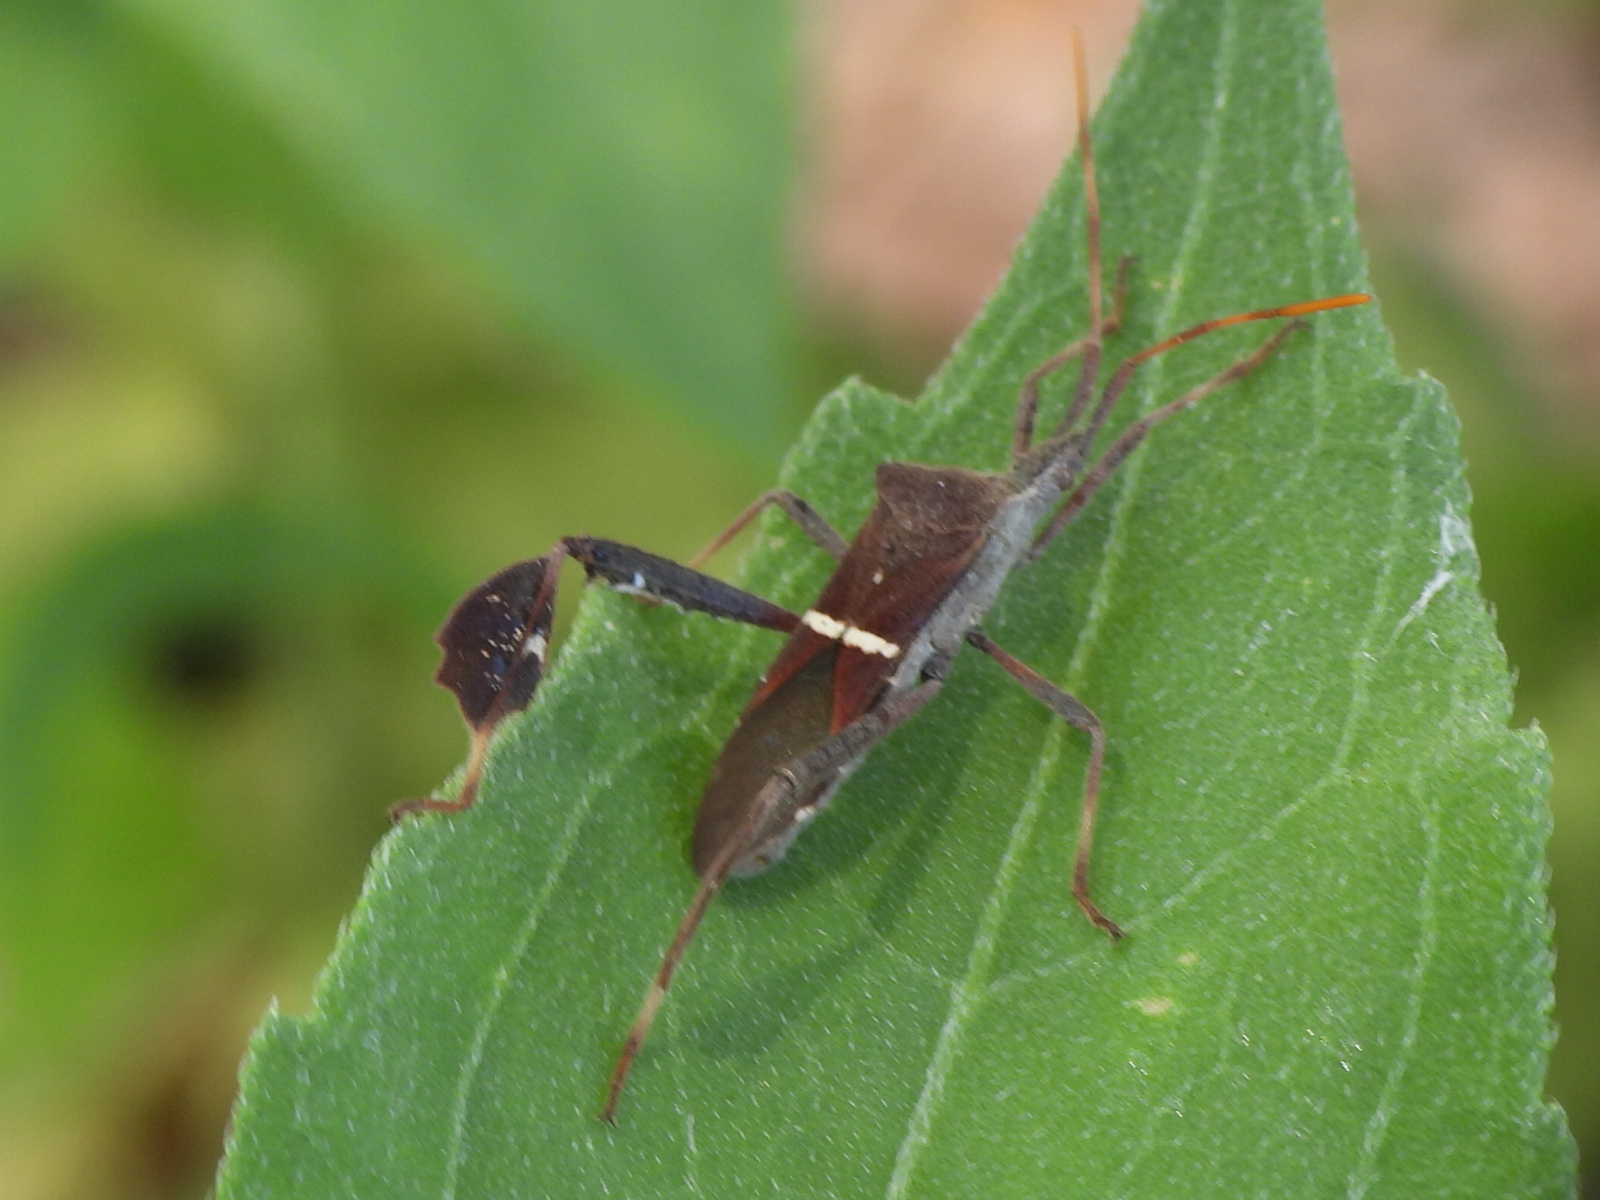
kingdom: Animalia
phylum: Arthropoda
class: Insecta
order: Hemiptera
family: Coreidae
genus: Leptoglossus
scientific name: Leptoglossus phyllopus
